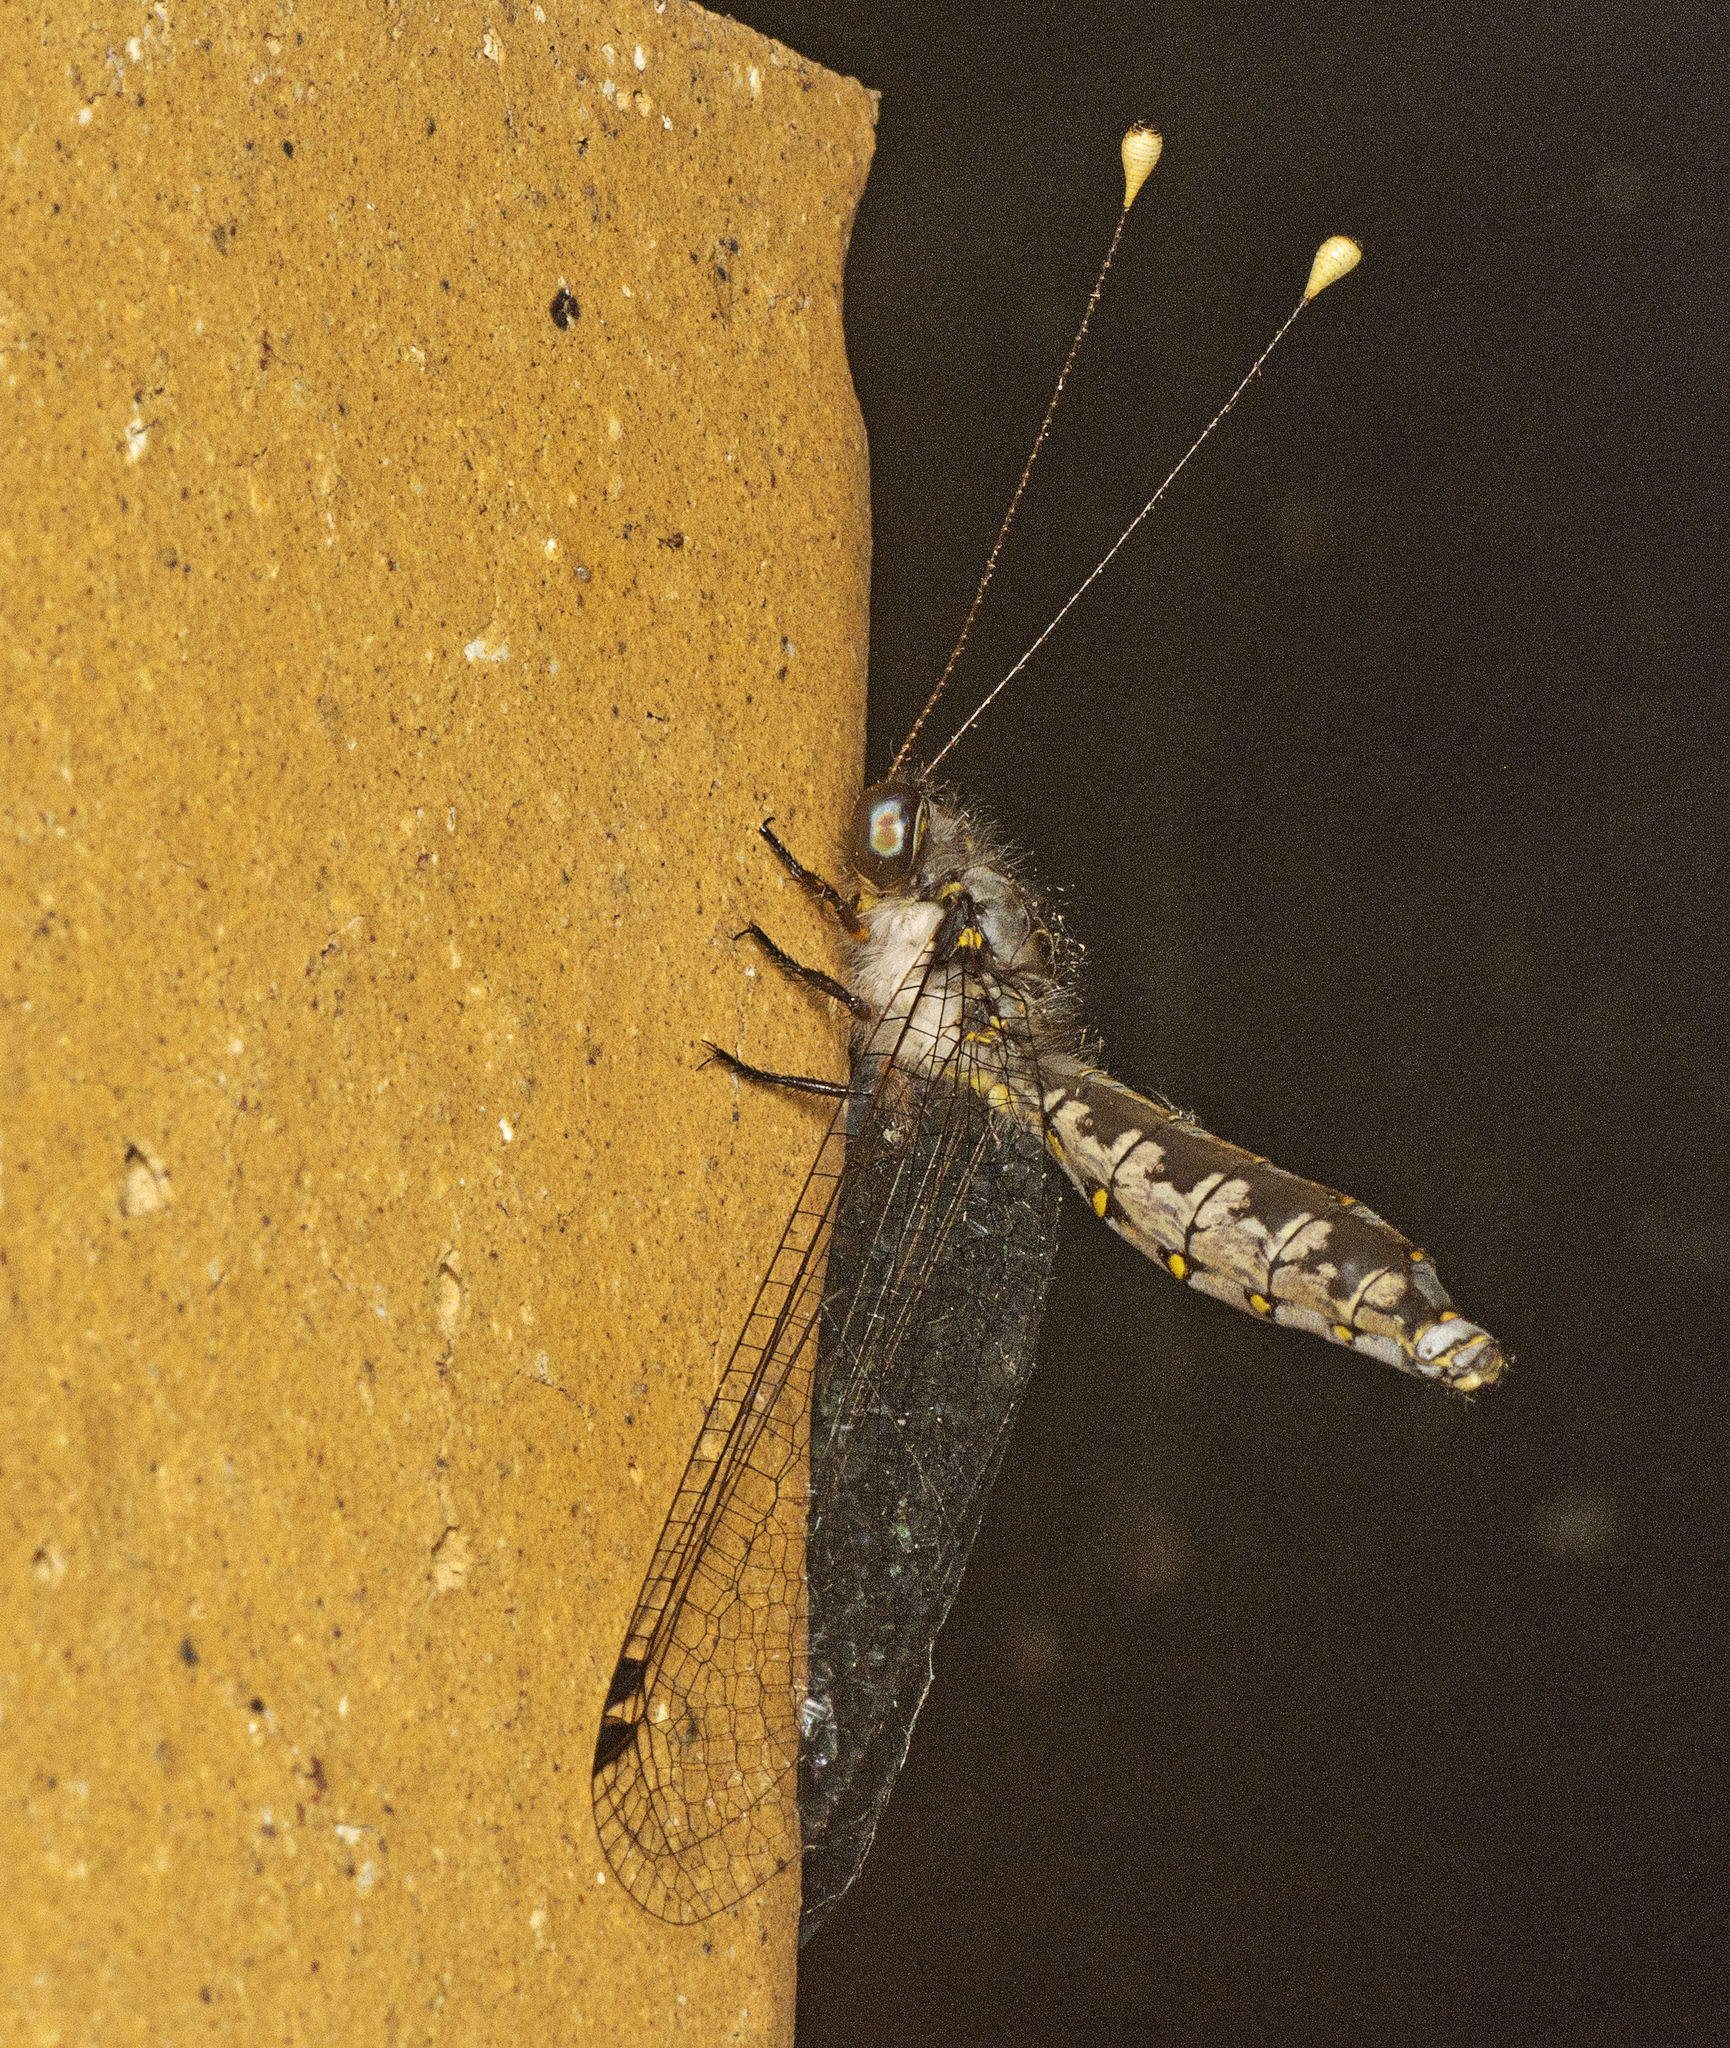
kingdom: Animalia
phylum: Arthropoda
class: Insecta
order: Neuroptera
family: Ascalaphidae
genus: Suhpalacsa
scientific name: Suhpalacsa lyriformis
